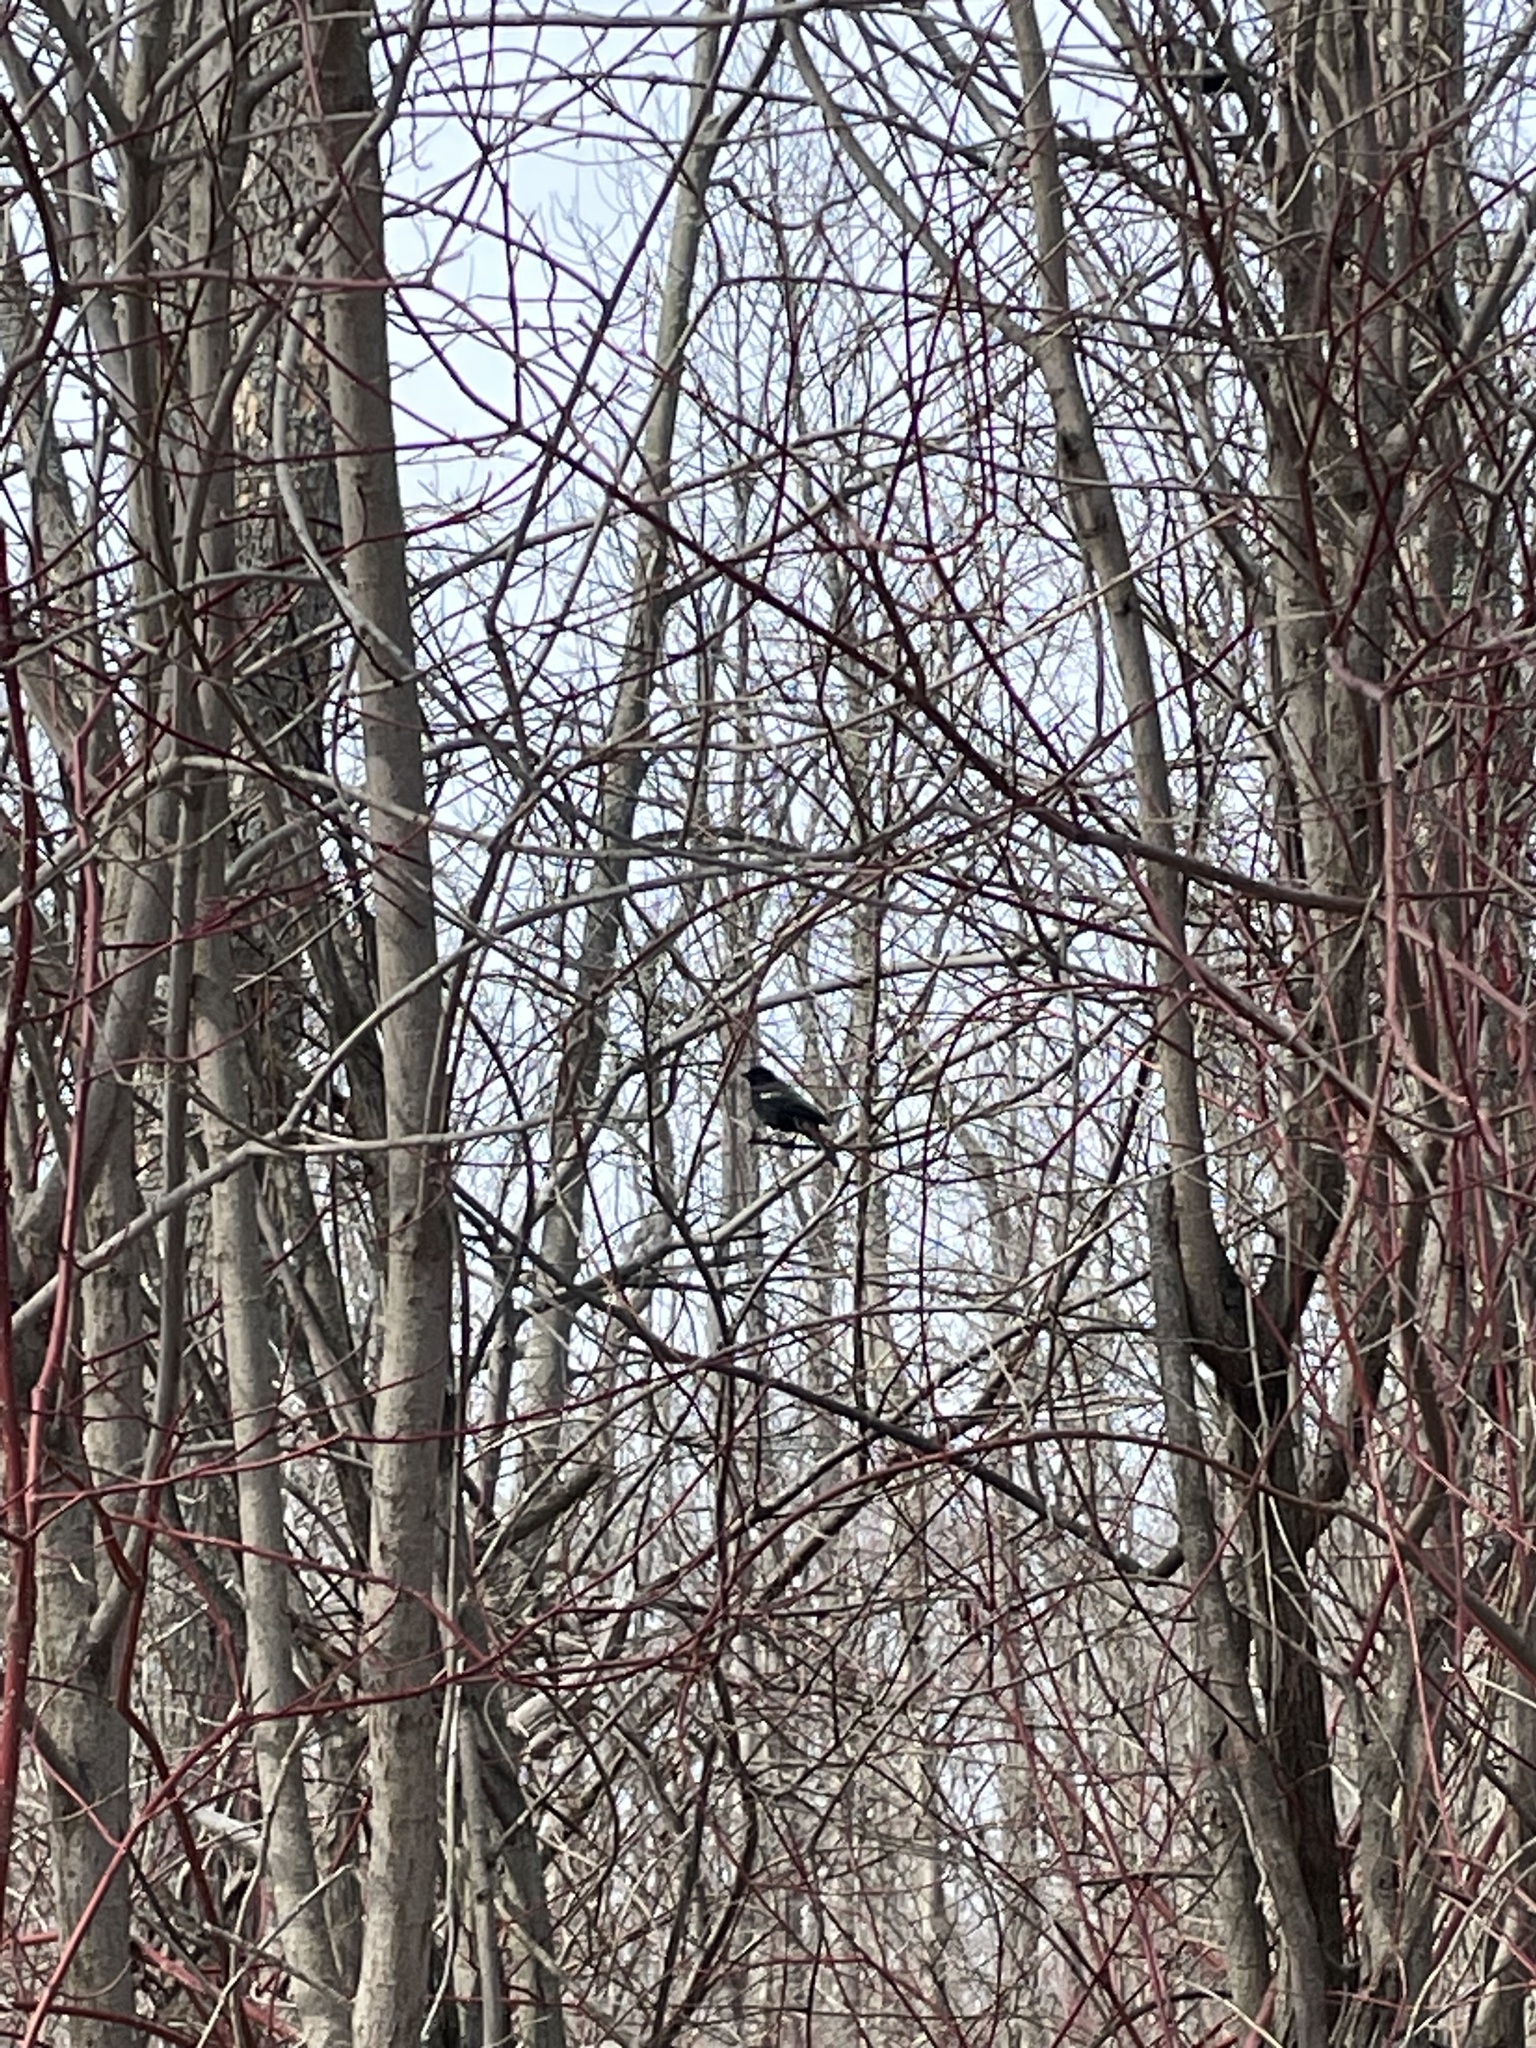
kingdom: Animalia
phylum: Chordata
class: Aves
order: Passeriformes
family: Icteridae
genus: Agelaius
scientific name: Agelaius phoeniceus
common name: Red-winged blackbird
